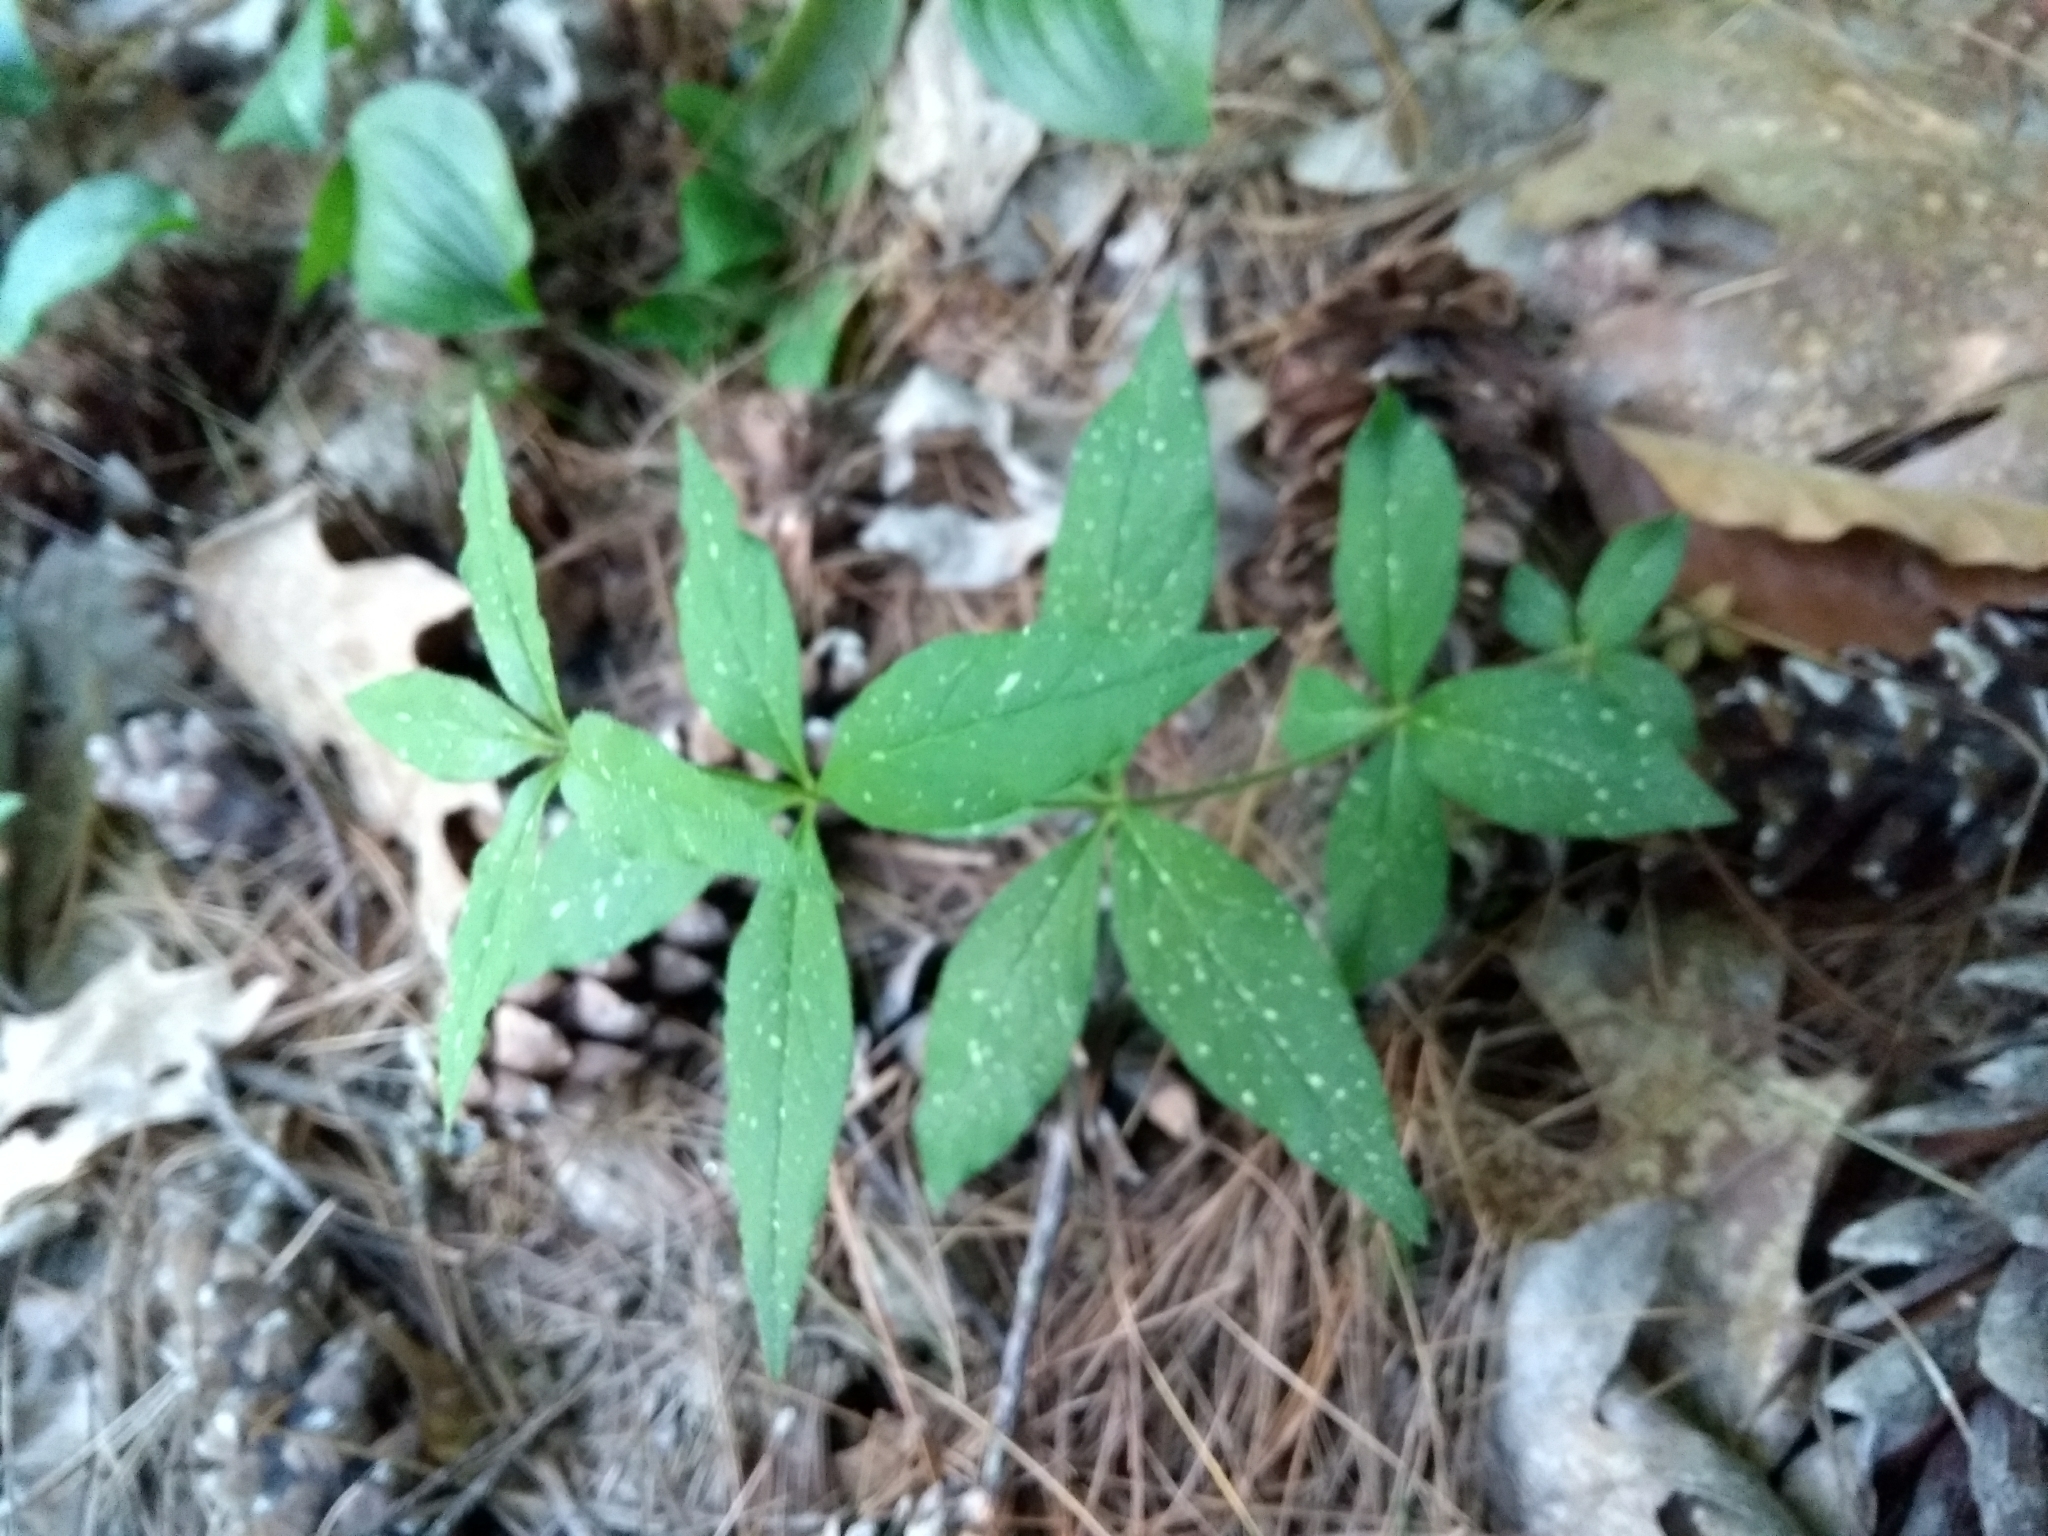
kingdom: Plantae
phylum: Tracheophyta
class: Magnoliopsida
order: Ericales
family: Primulaceae
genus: Lysimachia
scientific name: Lysimachia quadrifolia
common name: Whorled loosestrife
